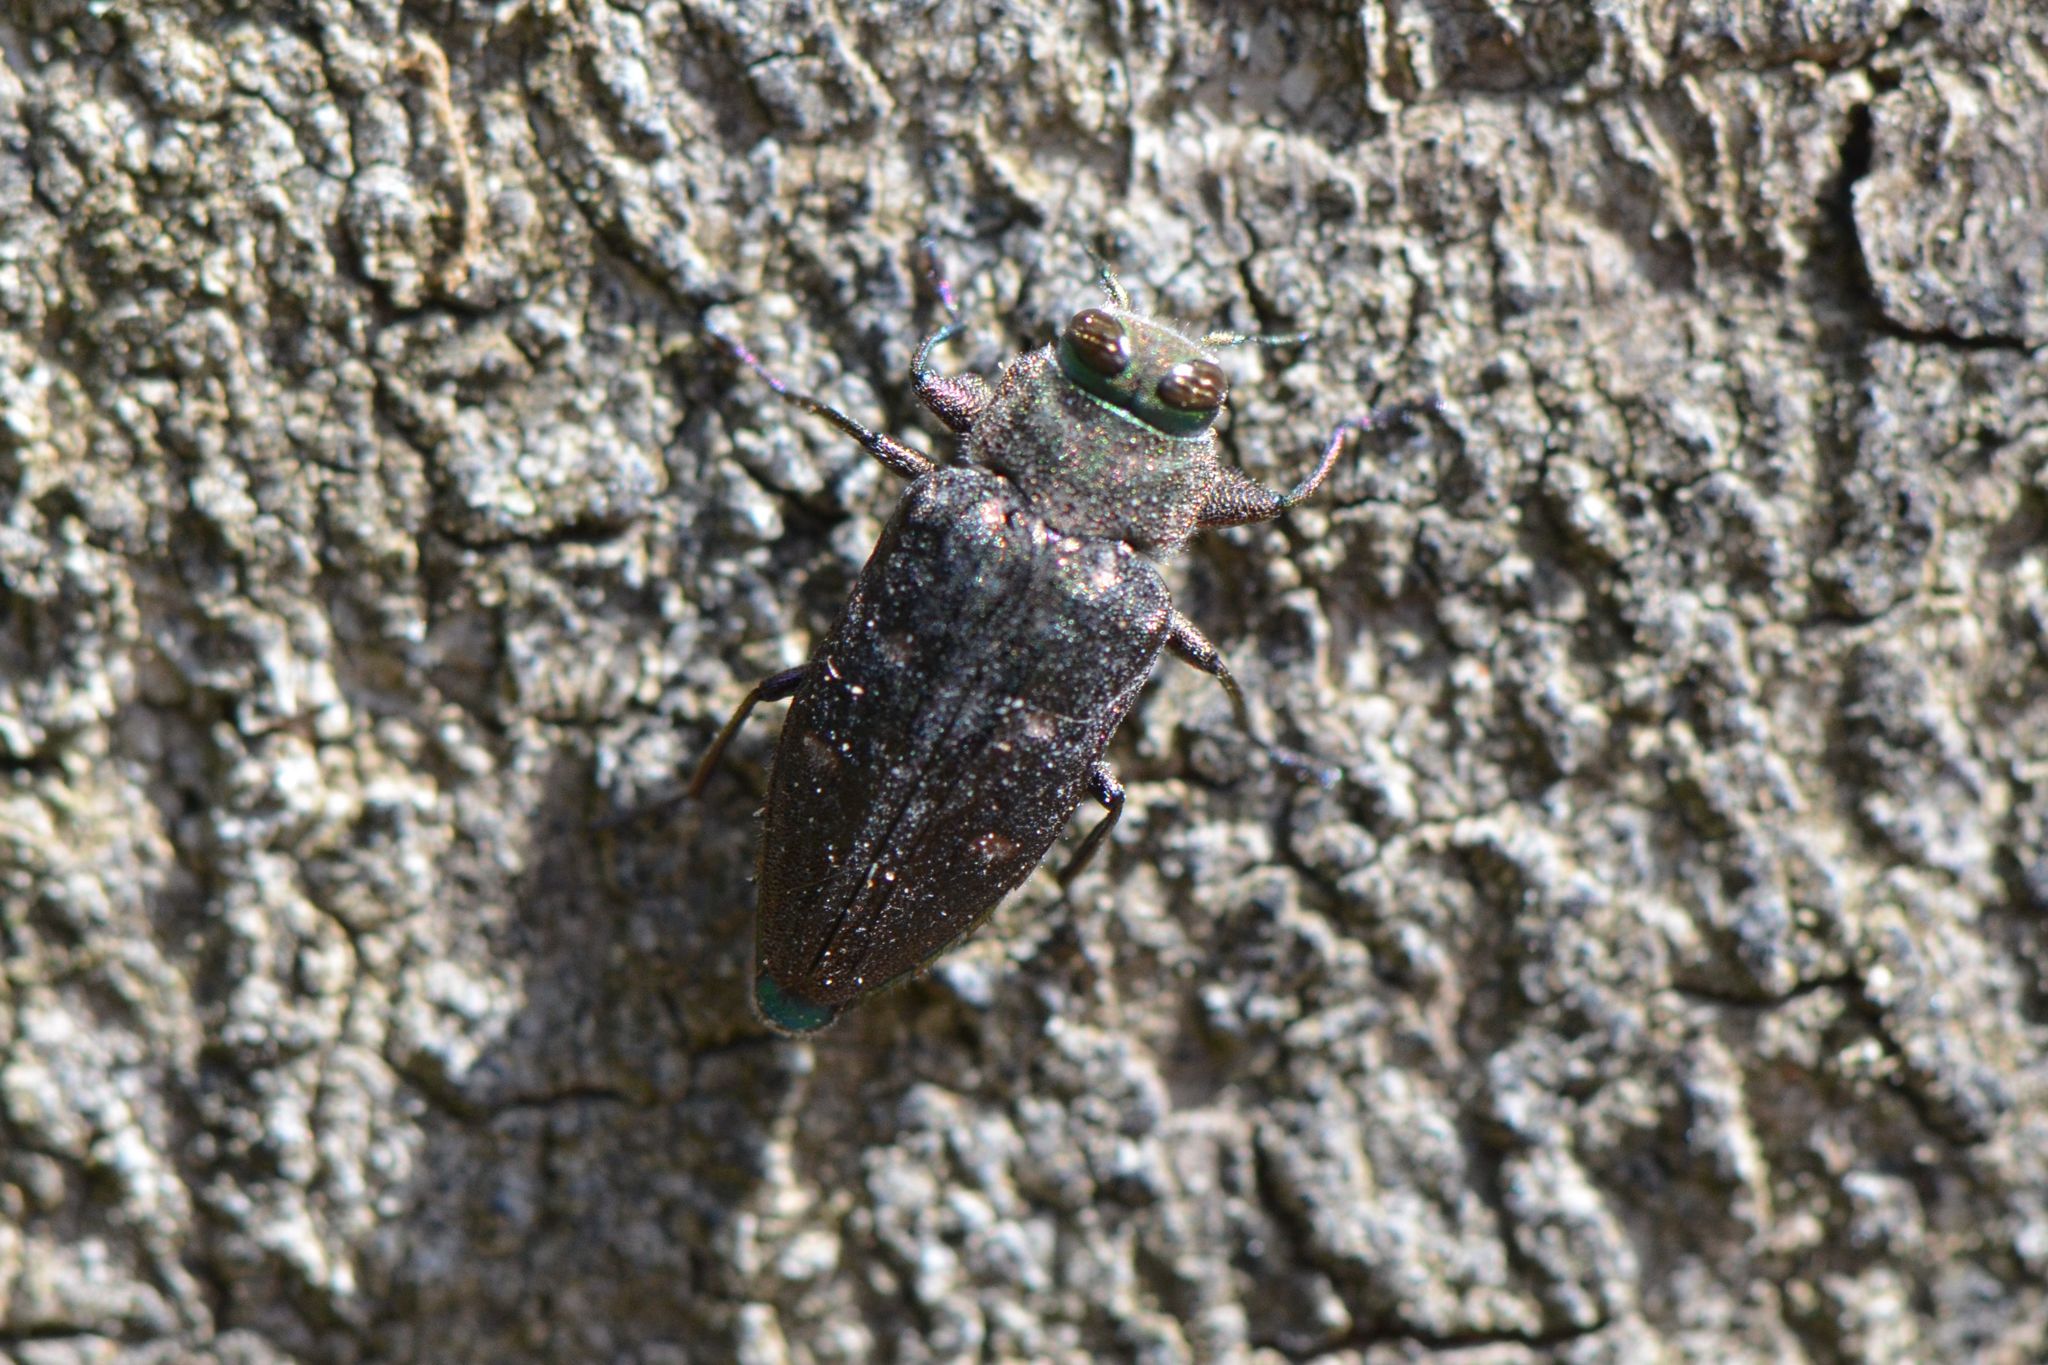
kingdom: Animalia
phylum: Arthropoda
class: Insecta
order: Coleoptera
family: Buprestidae
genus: Chrysobothris
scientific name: Chrysobothris affinis
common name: Beetle
